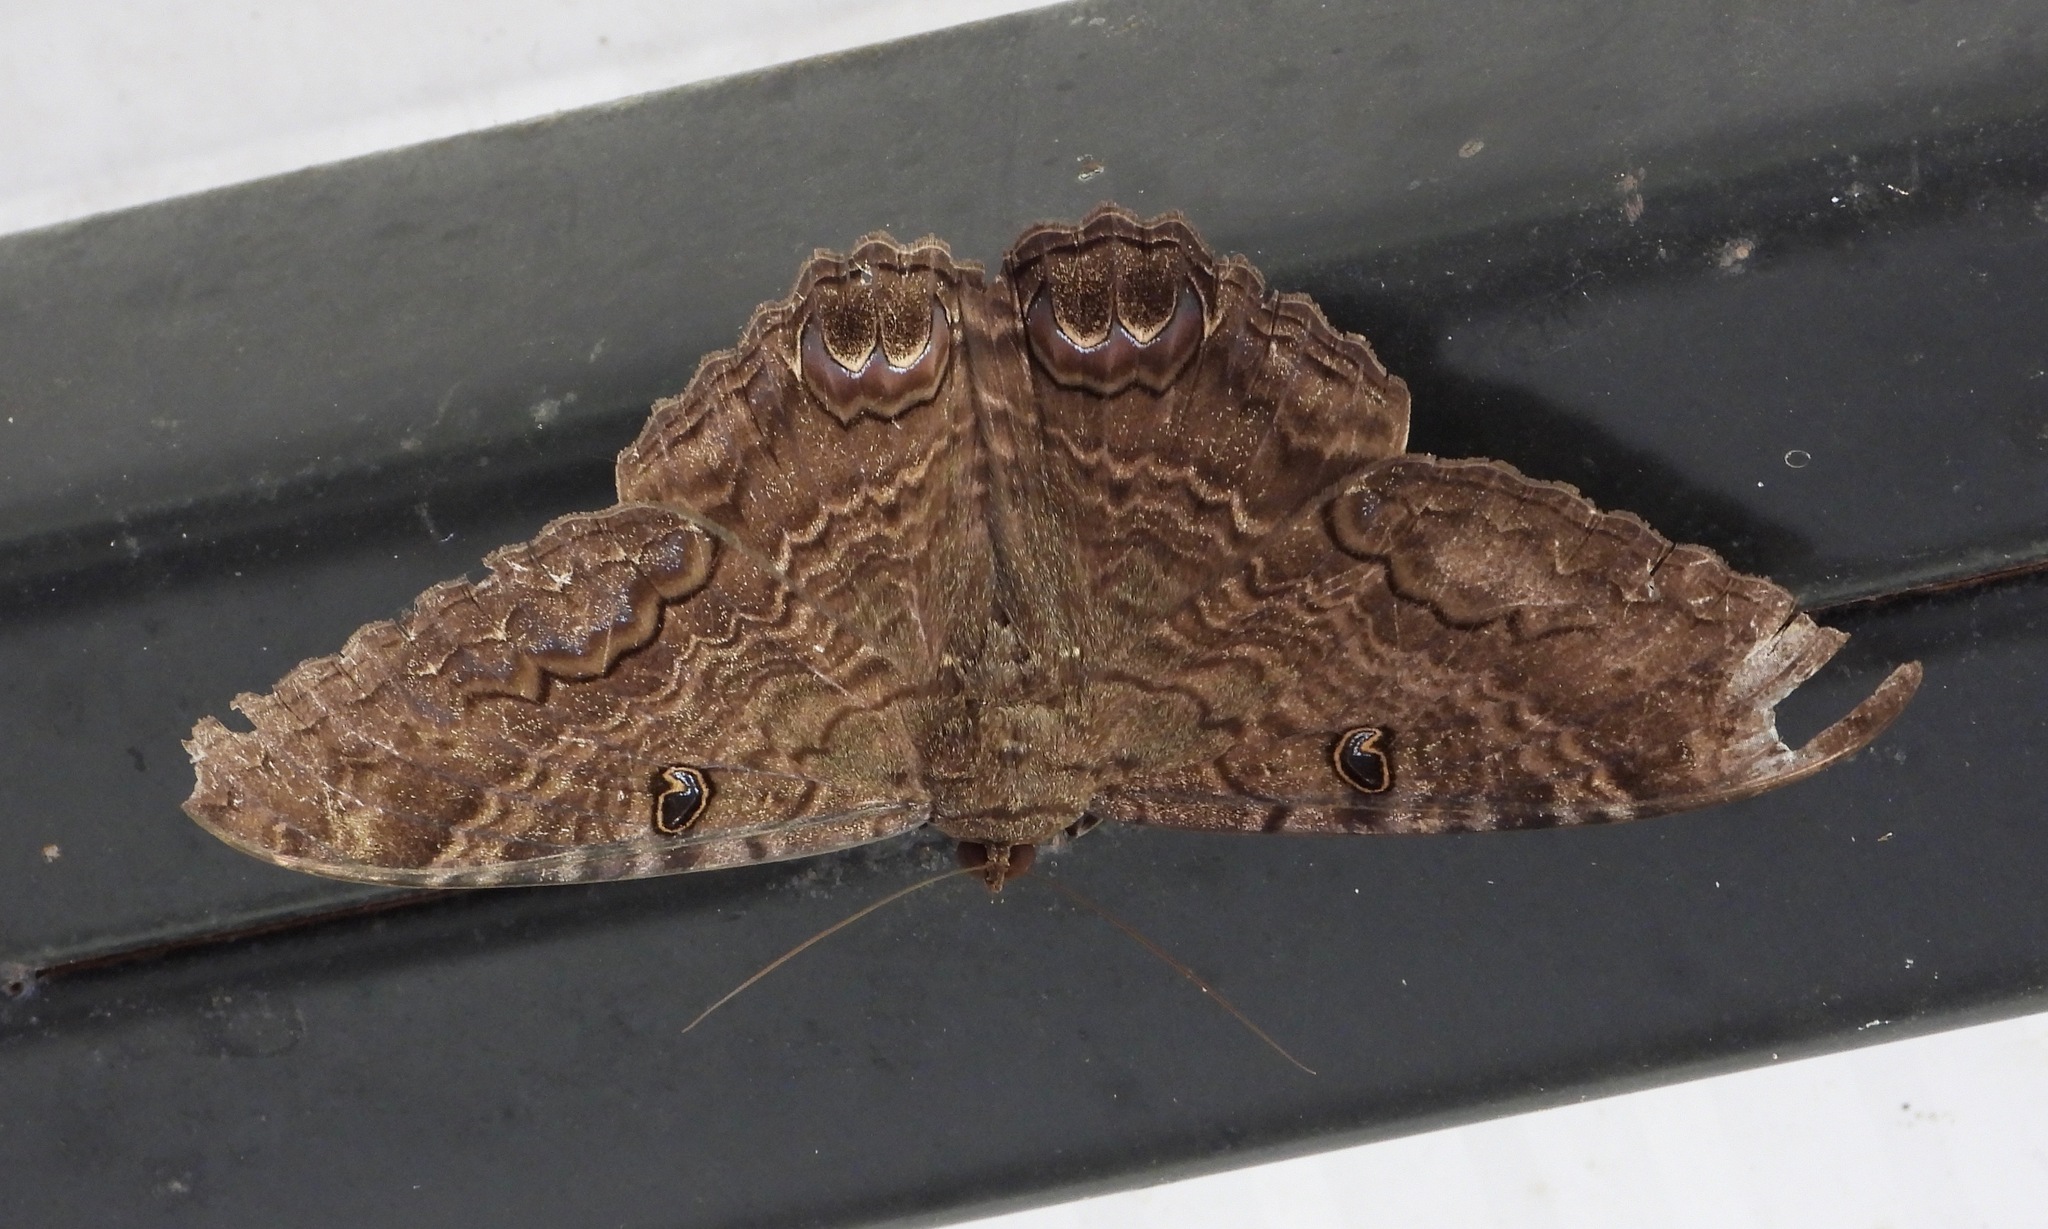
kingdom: Animalia
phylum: Arthropoda
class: Insecta
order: Lepidoptera
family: Erebidae
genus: Ascalapha
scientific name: Ascalapha odorata
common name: Black witch
